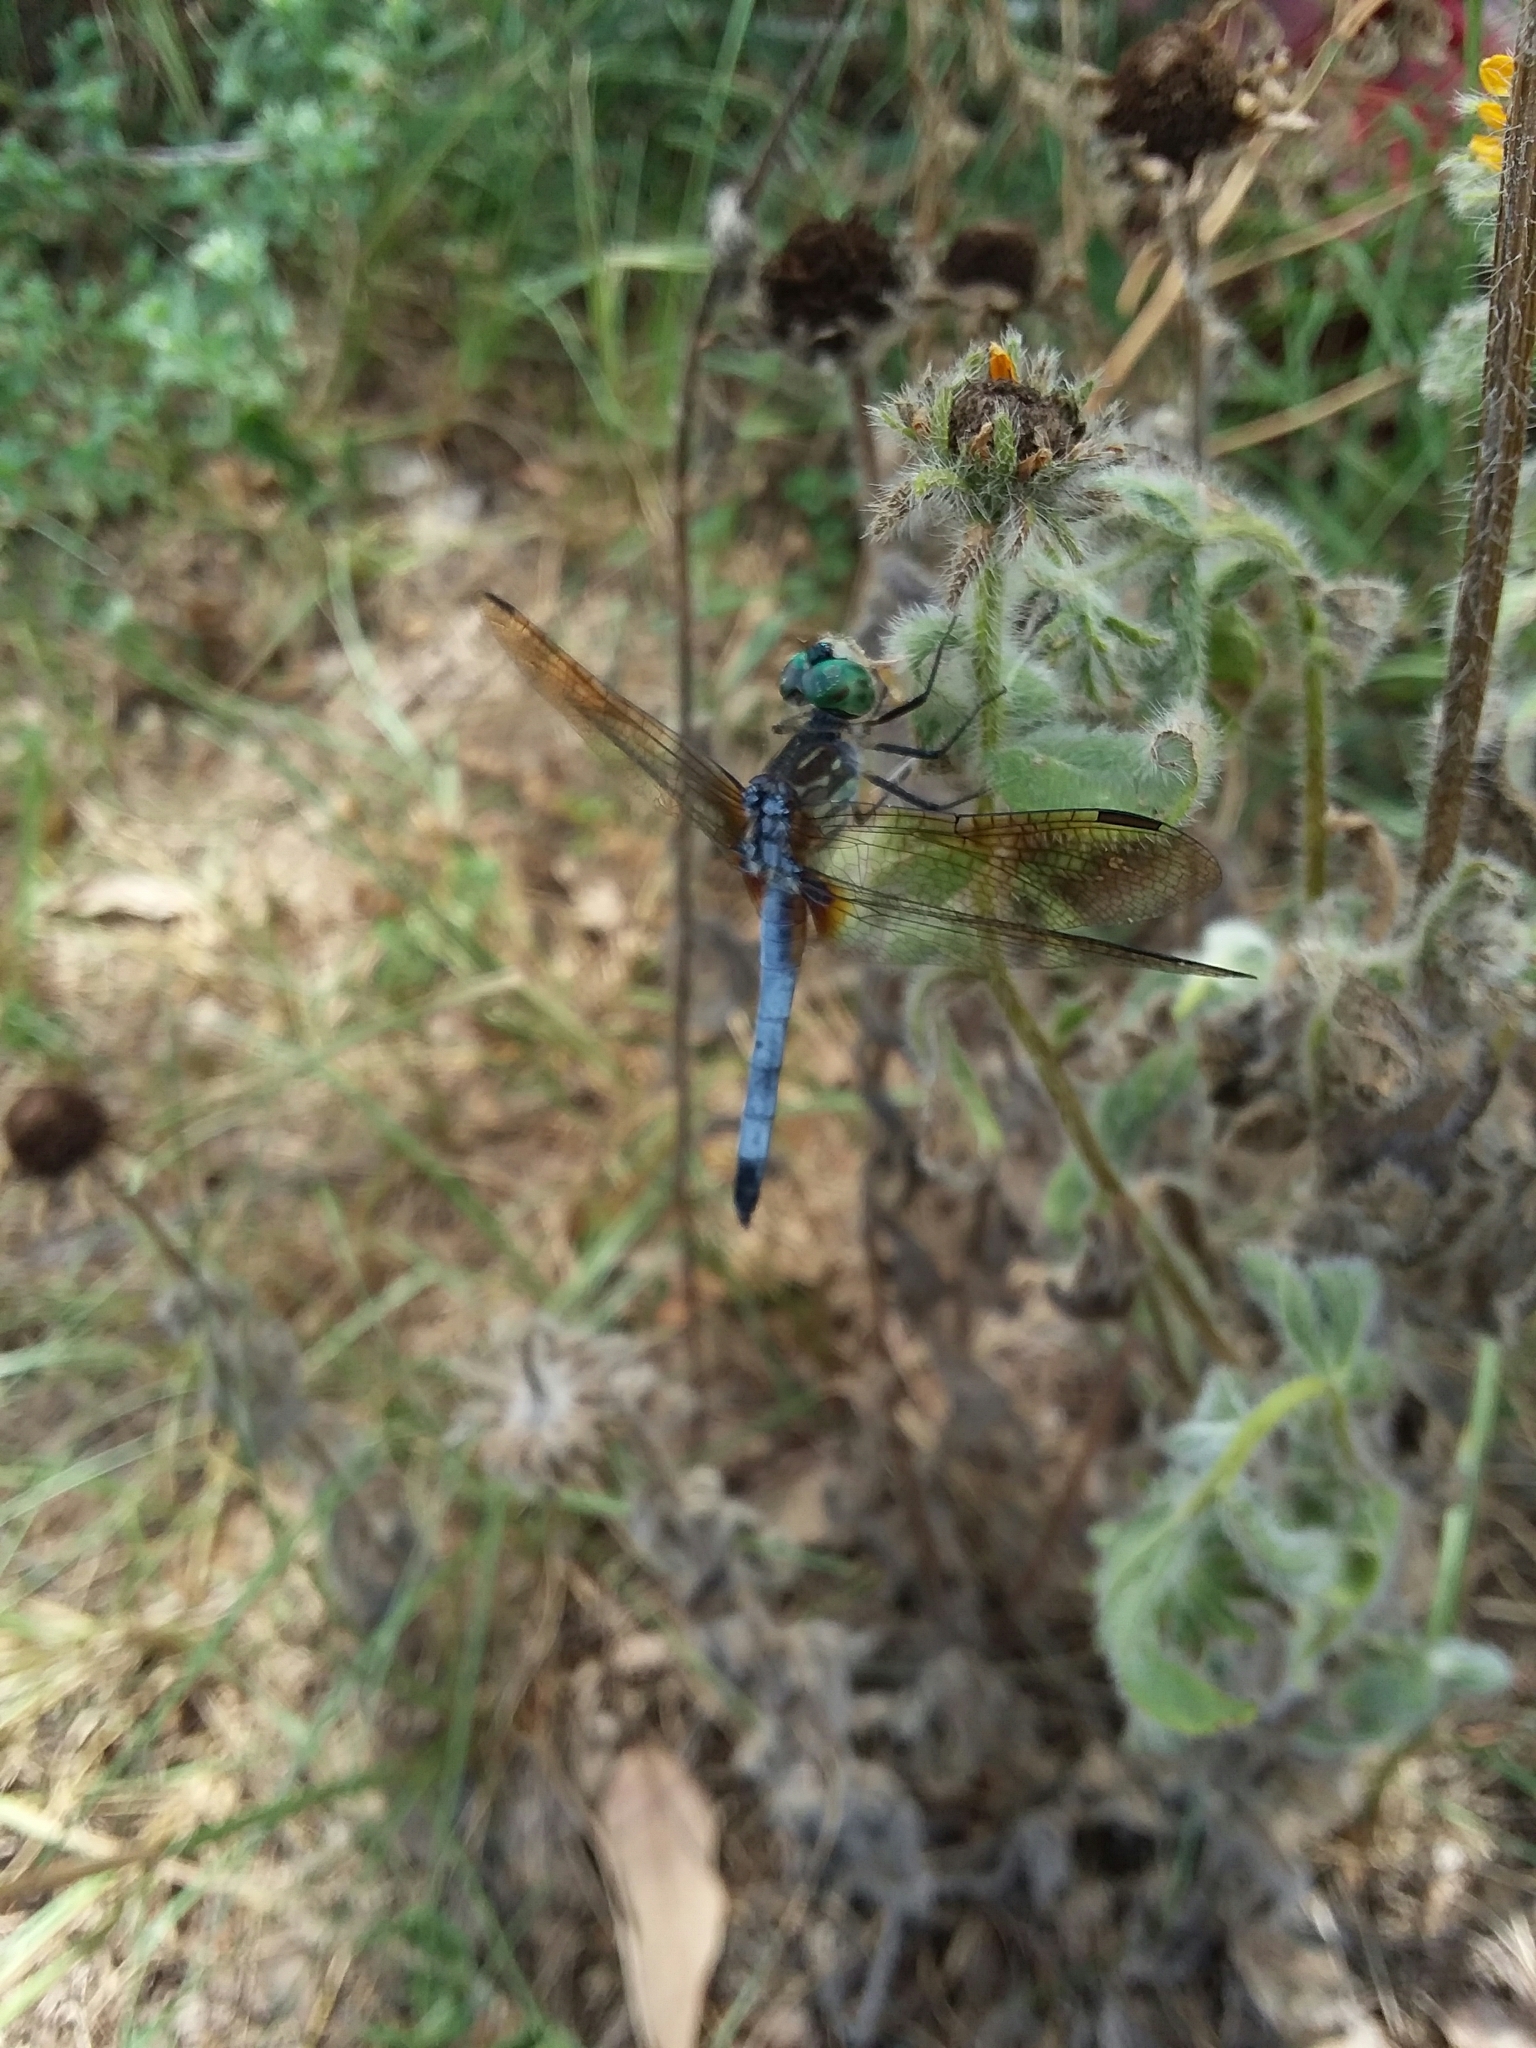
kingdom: Animalia
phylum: Arthropoda
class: Insecta
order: Odonata
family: Libellulidae
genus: Pachydiplax
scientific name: Pachydiplax longipennis
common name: Blue dasher
